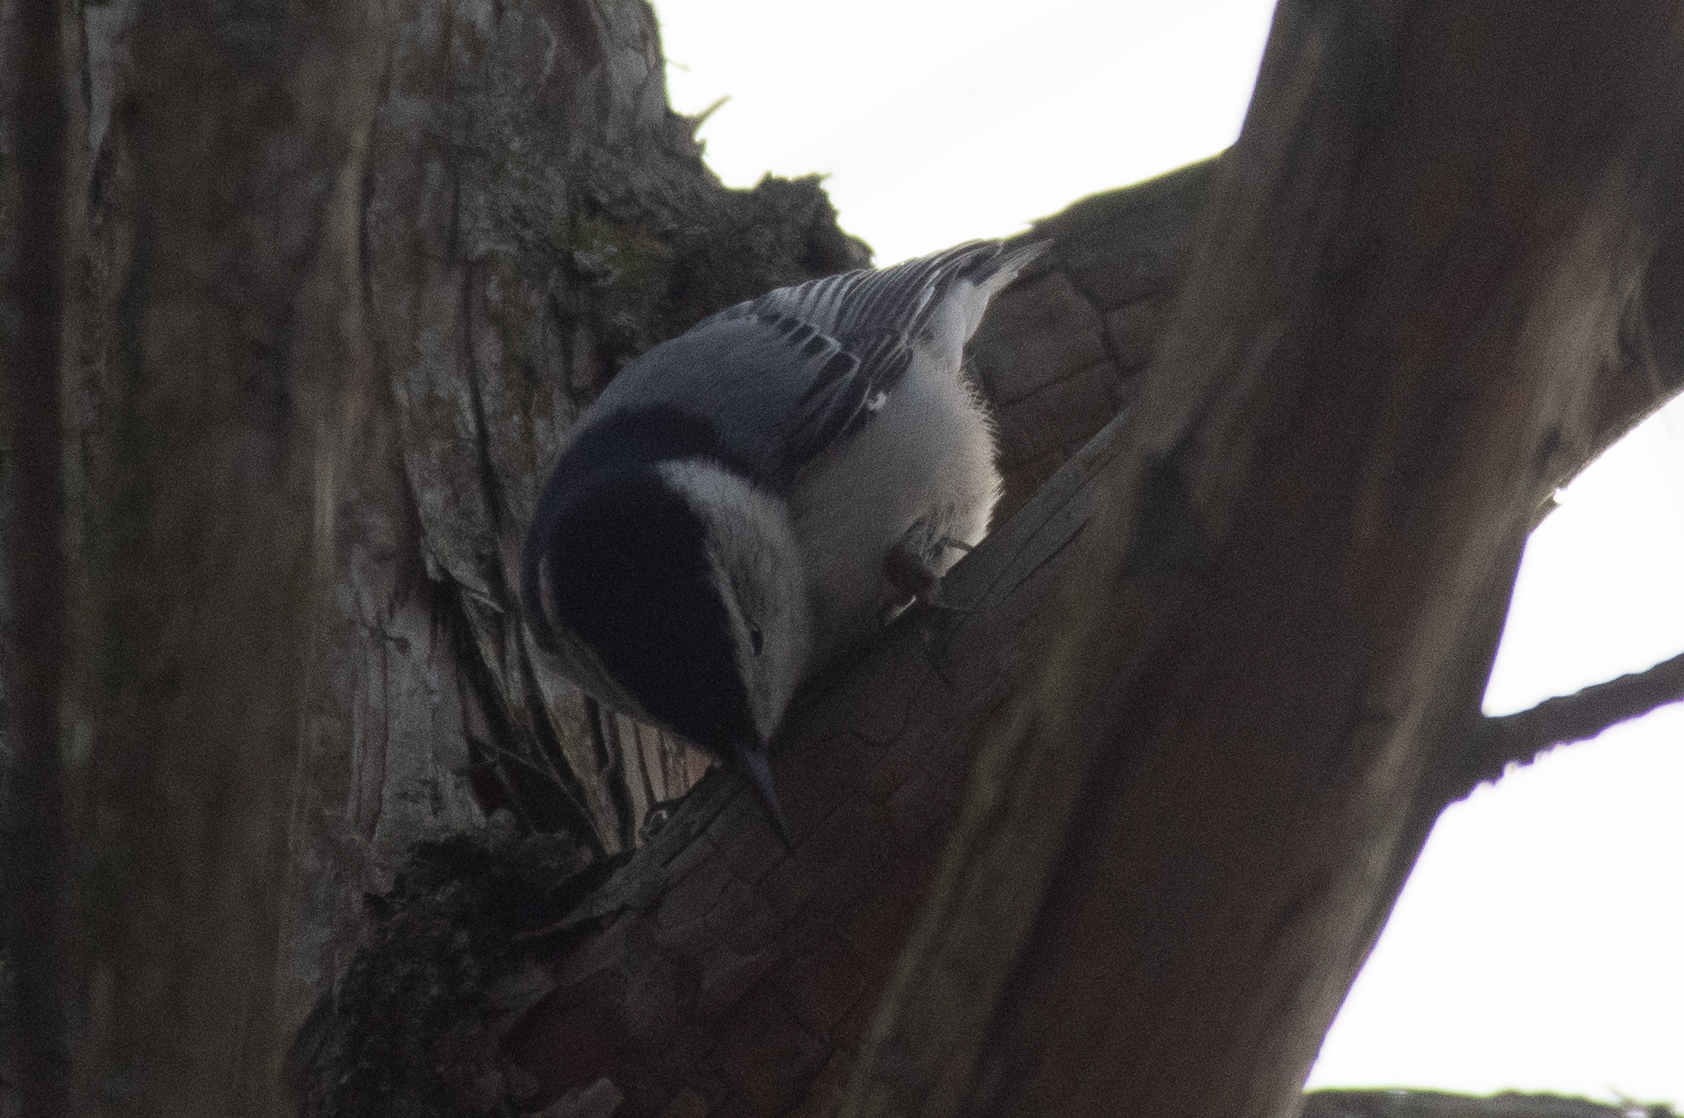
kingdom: Animalia
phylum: Chordata
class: Aves
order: Passeriformes
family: Sittidae
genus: Sitta
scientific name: Sitta carolinensis
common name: White-breasted nuthatch
